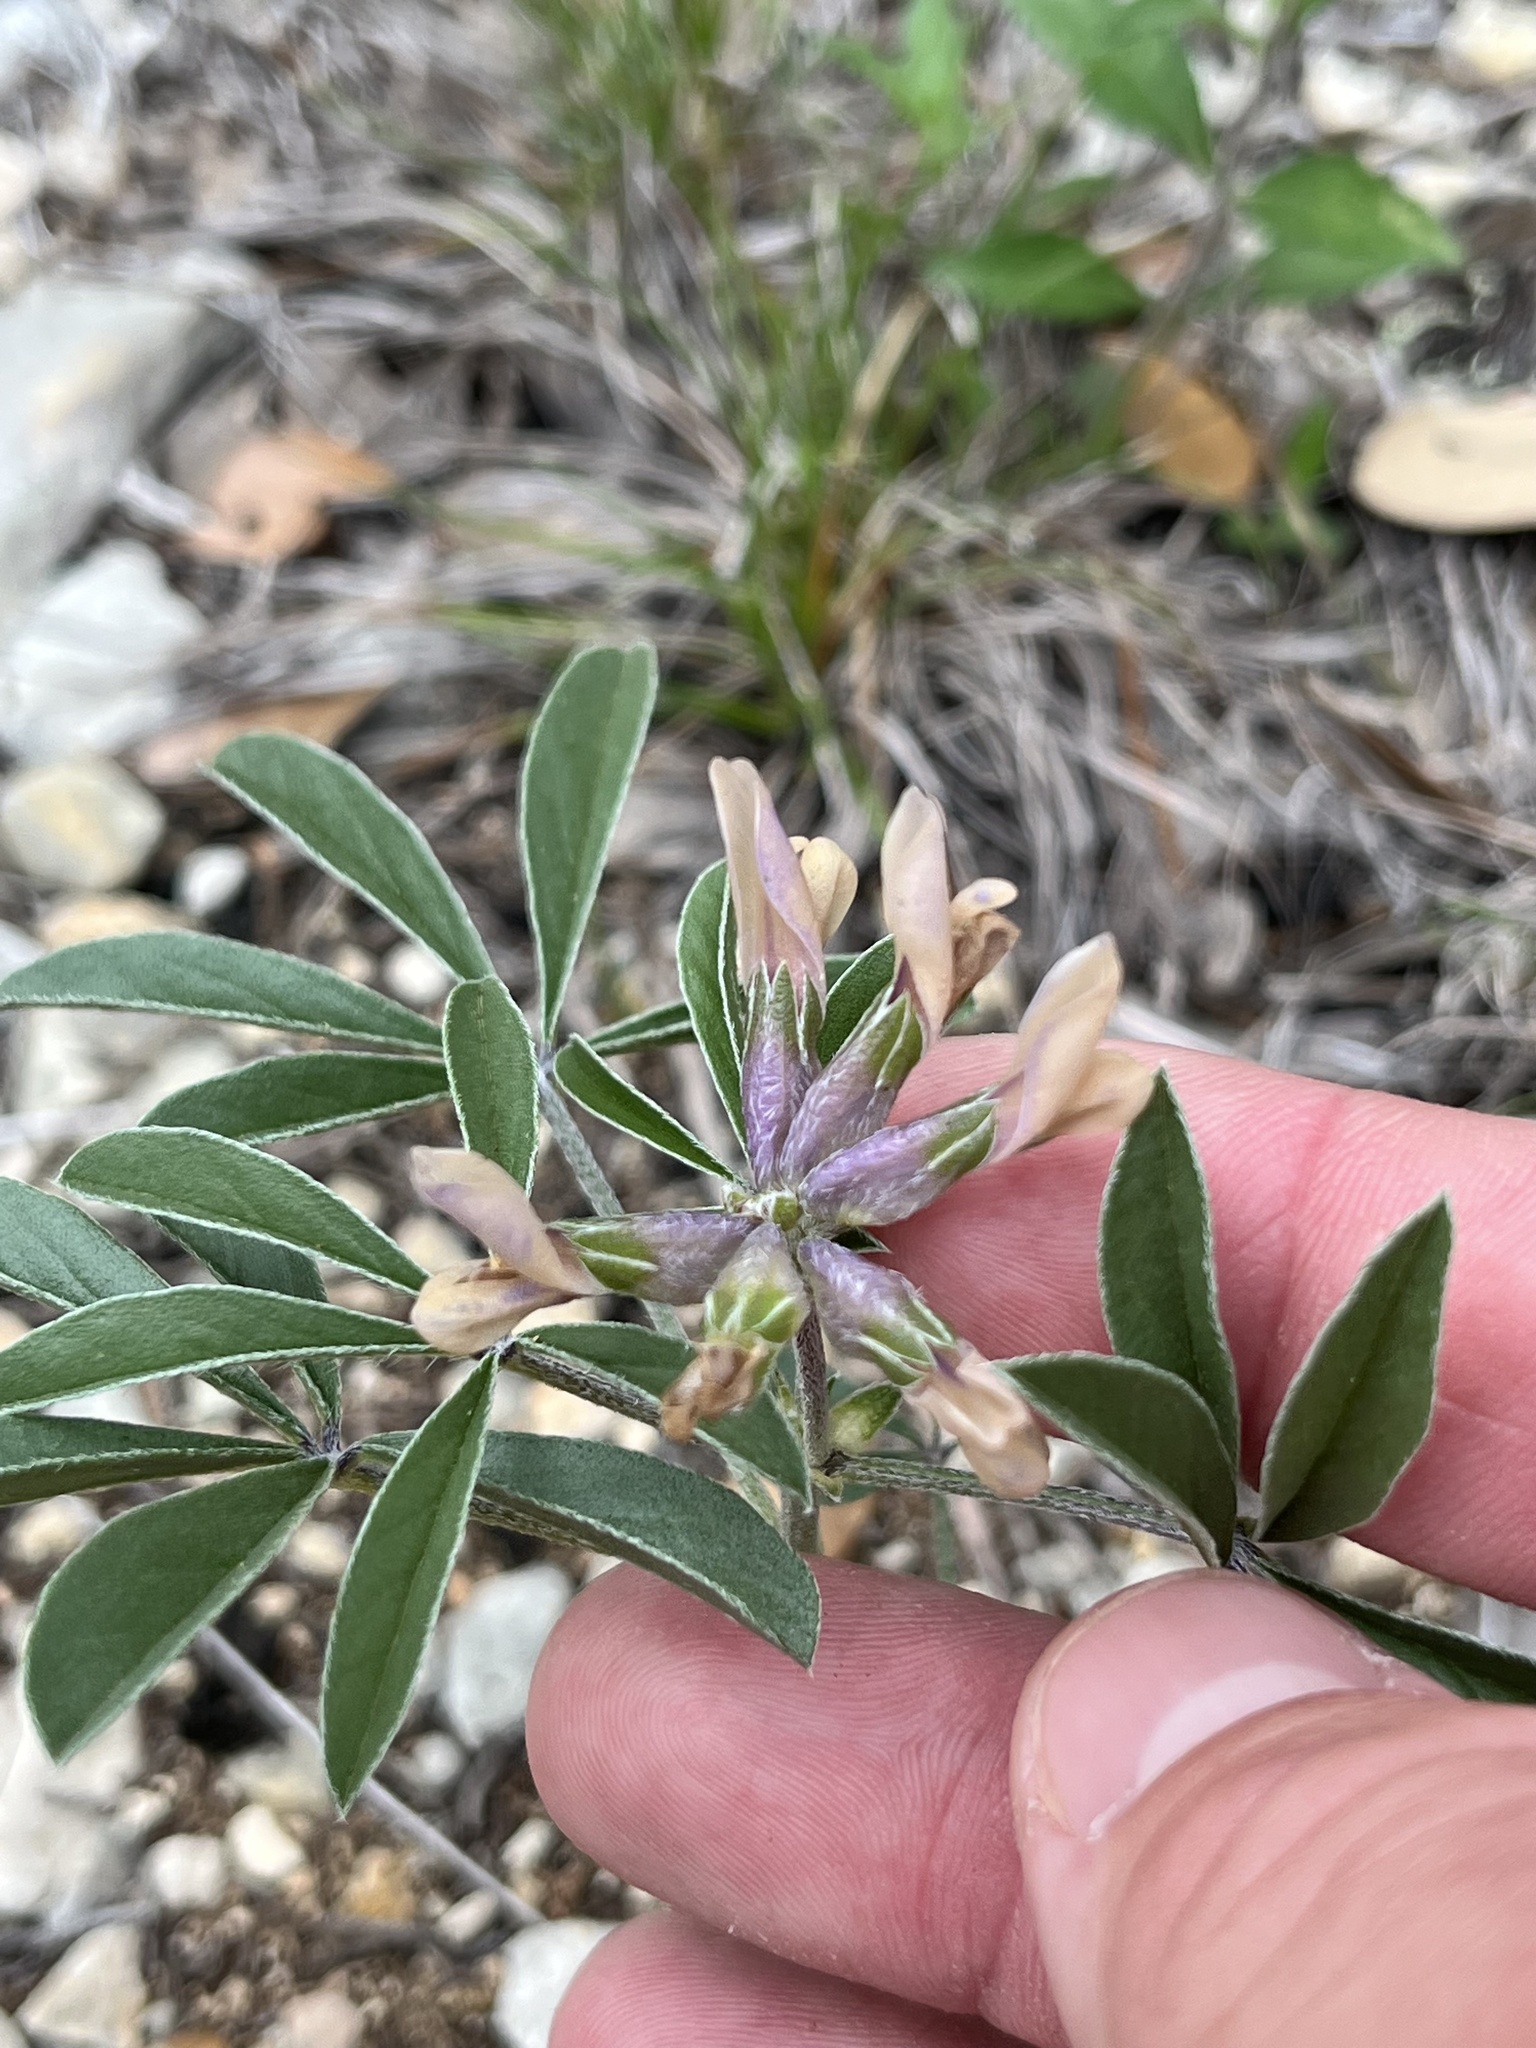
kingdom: Plantae
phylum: Tracheophyta
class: Magnoliopsida
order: Fabales
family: Fabaceae
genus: Pediomelum
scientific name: Pediomelum latestipulatum
